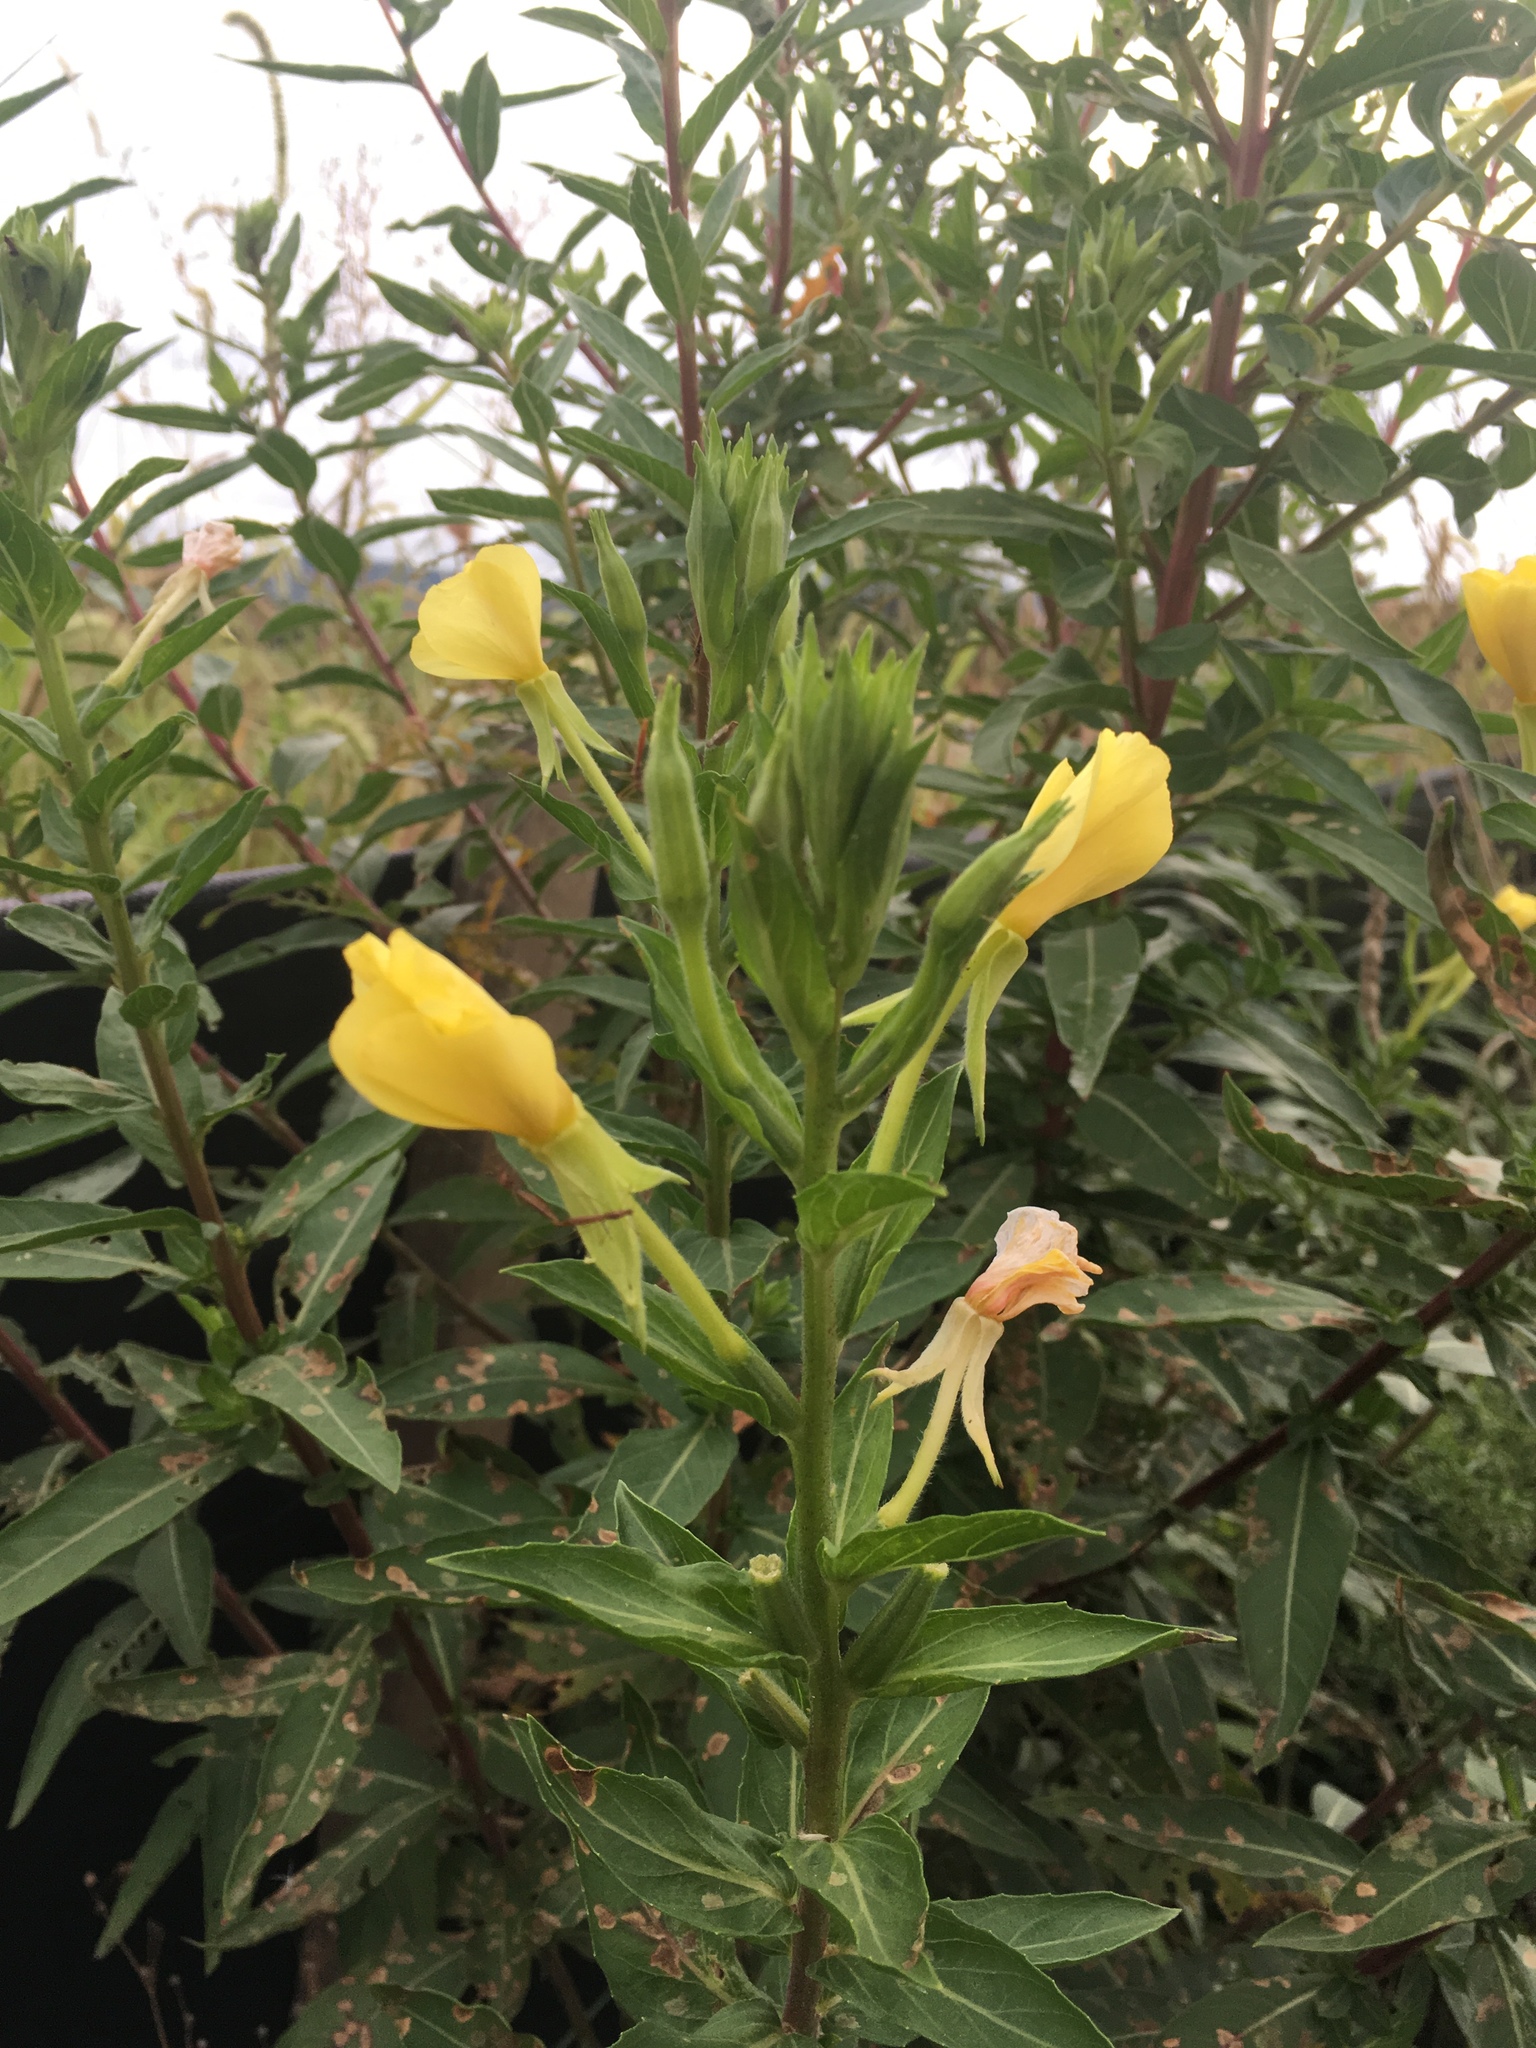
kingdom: Plantae
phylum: Tracheophyta
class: Magnoliopsida
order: Myrtales
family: Onagraceae
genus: Oenothera
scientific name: Oenothera biennis
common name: Common evening-primrose
